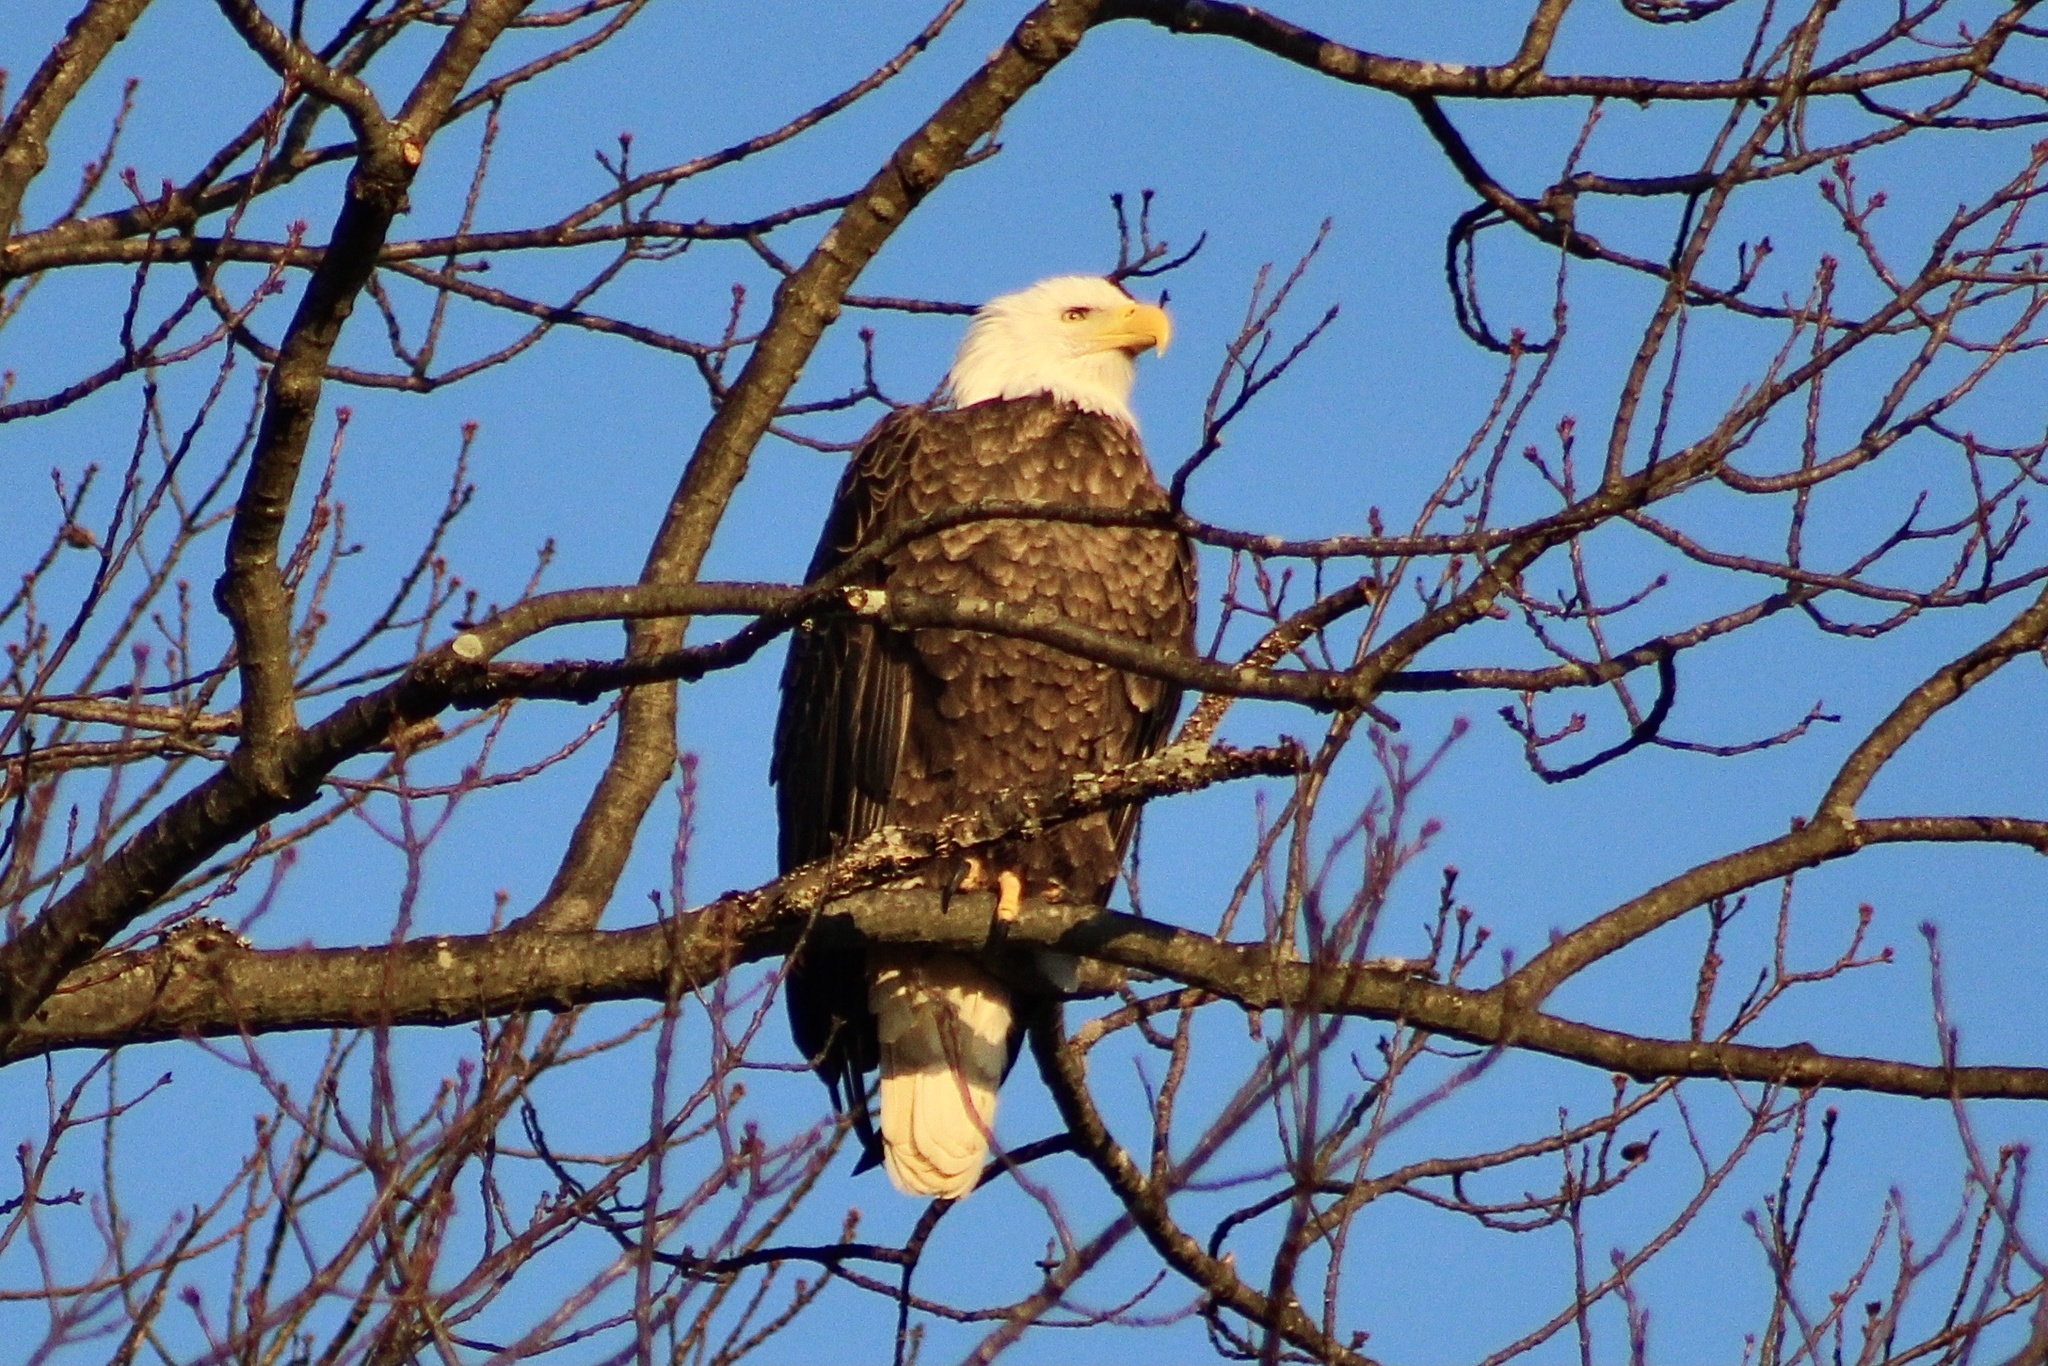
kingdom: Animalia
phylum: Chordata
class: Aves
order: Accipitriformes
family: Accipitridae
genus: Haliaeetus
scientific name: Haliaeetus leucocephalus
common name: Bald eagle
